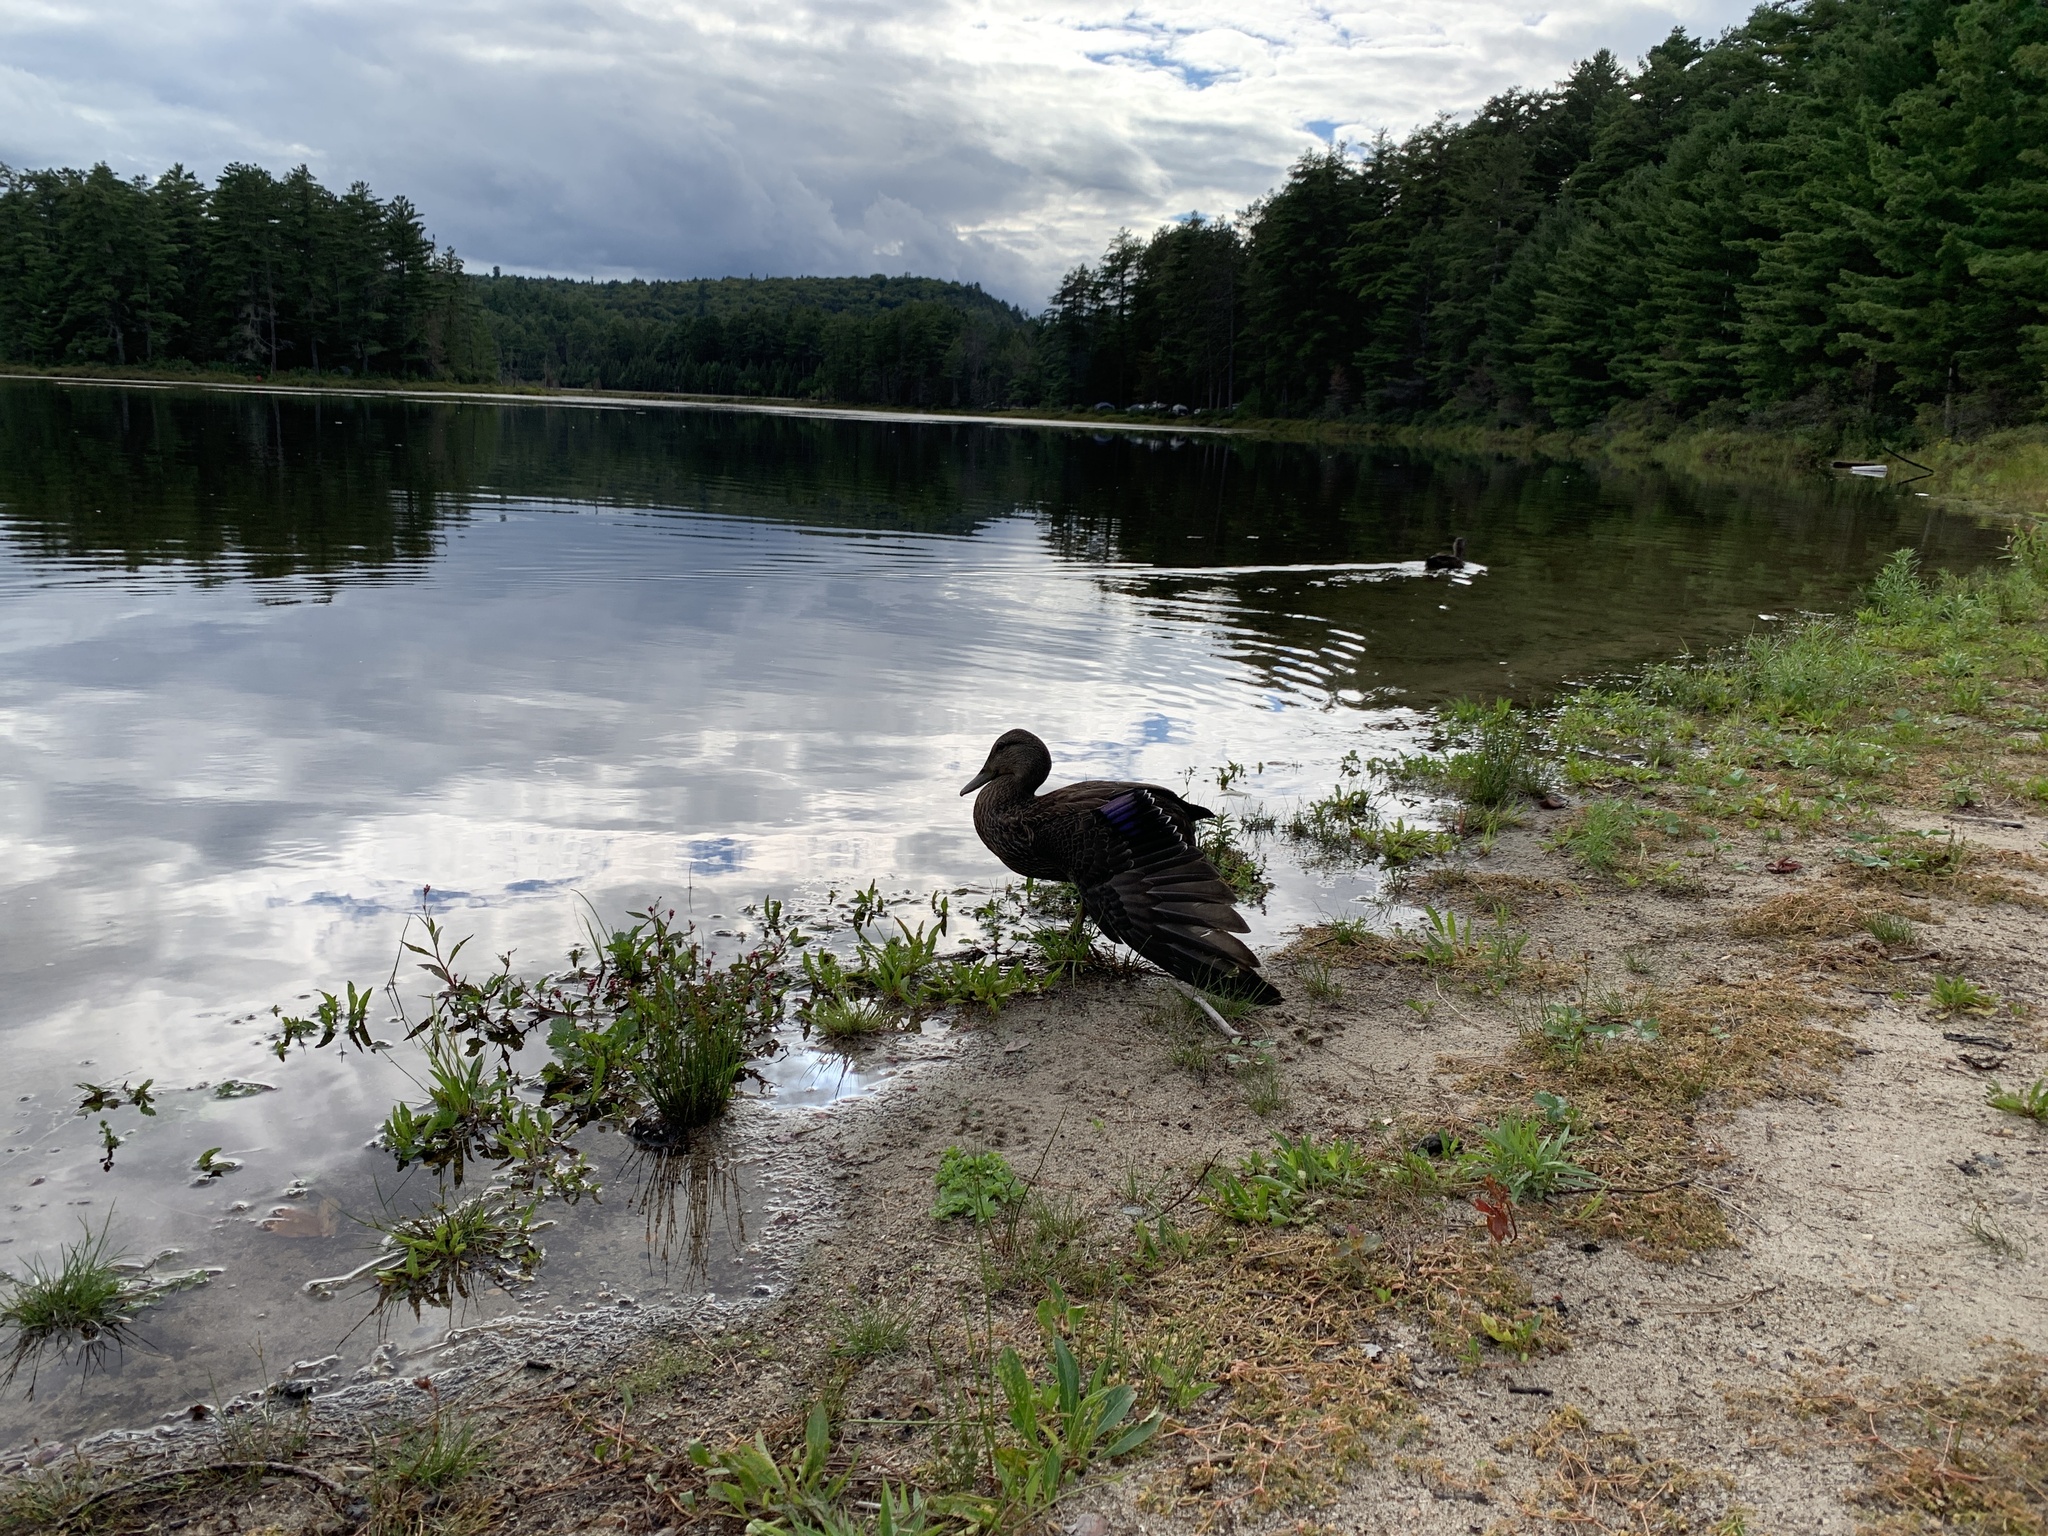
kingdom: Animalia
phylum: Chordata
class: Aves
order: Anseriformes
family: Anatidae
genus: Anas
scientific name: Anas platyrhynchos
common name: Mallard
